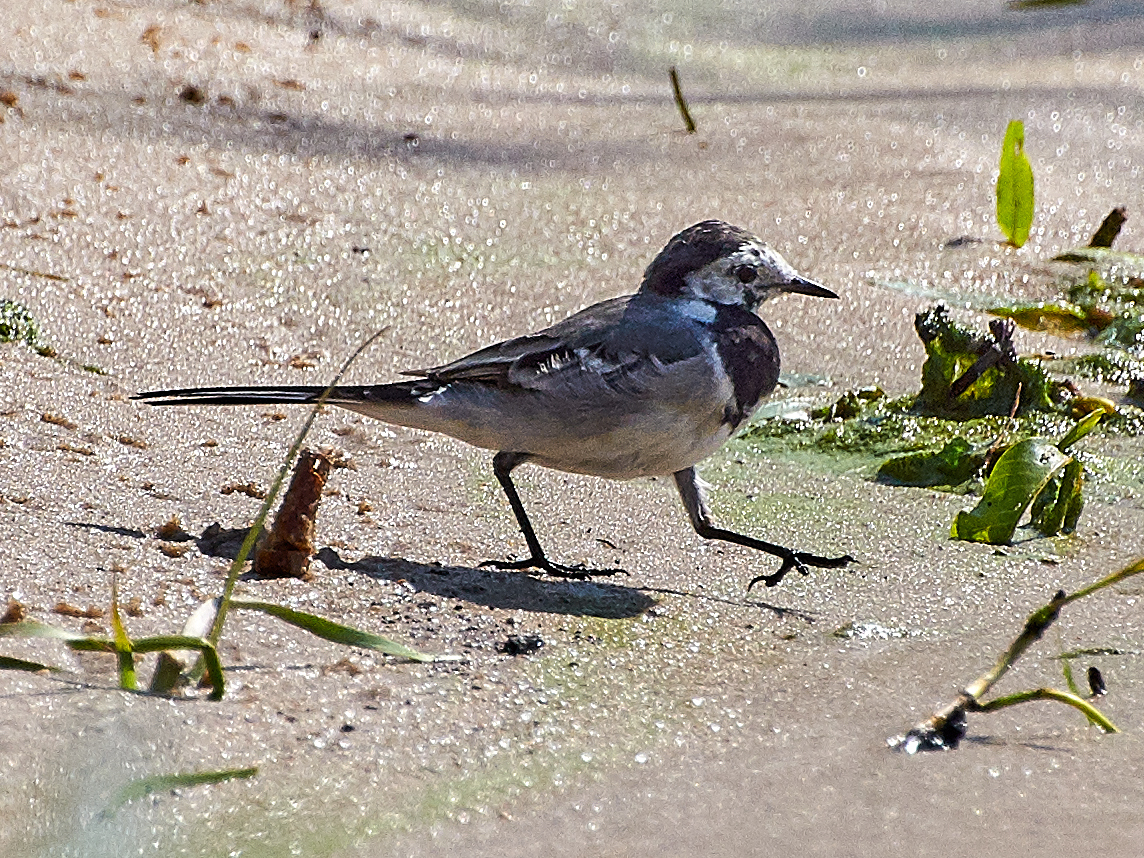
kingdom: Animalia
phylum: Chordata
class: Aves
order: Passeriformes
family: Motacillidae
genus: Motacilla
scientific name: Motacilla alba
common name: White wagtail
